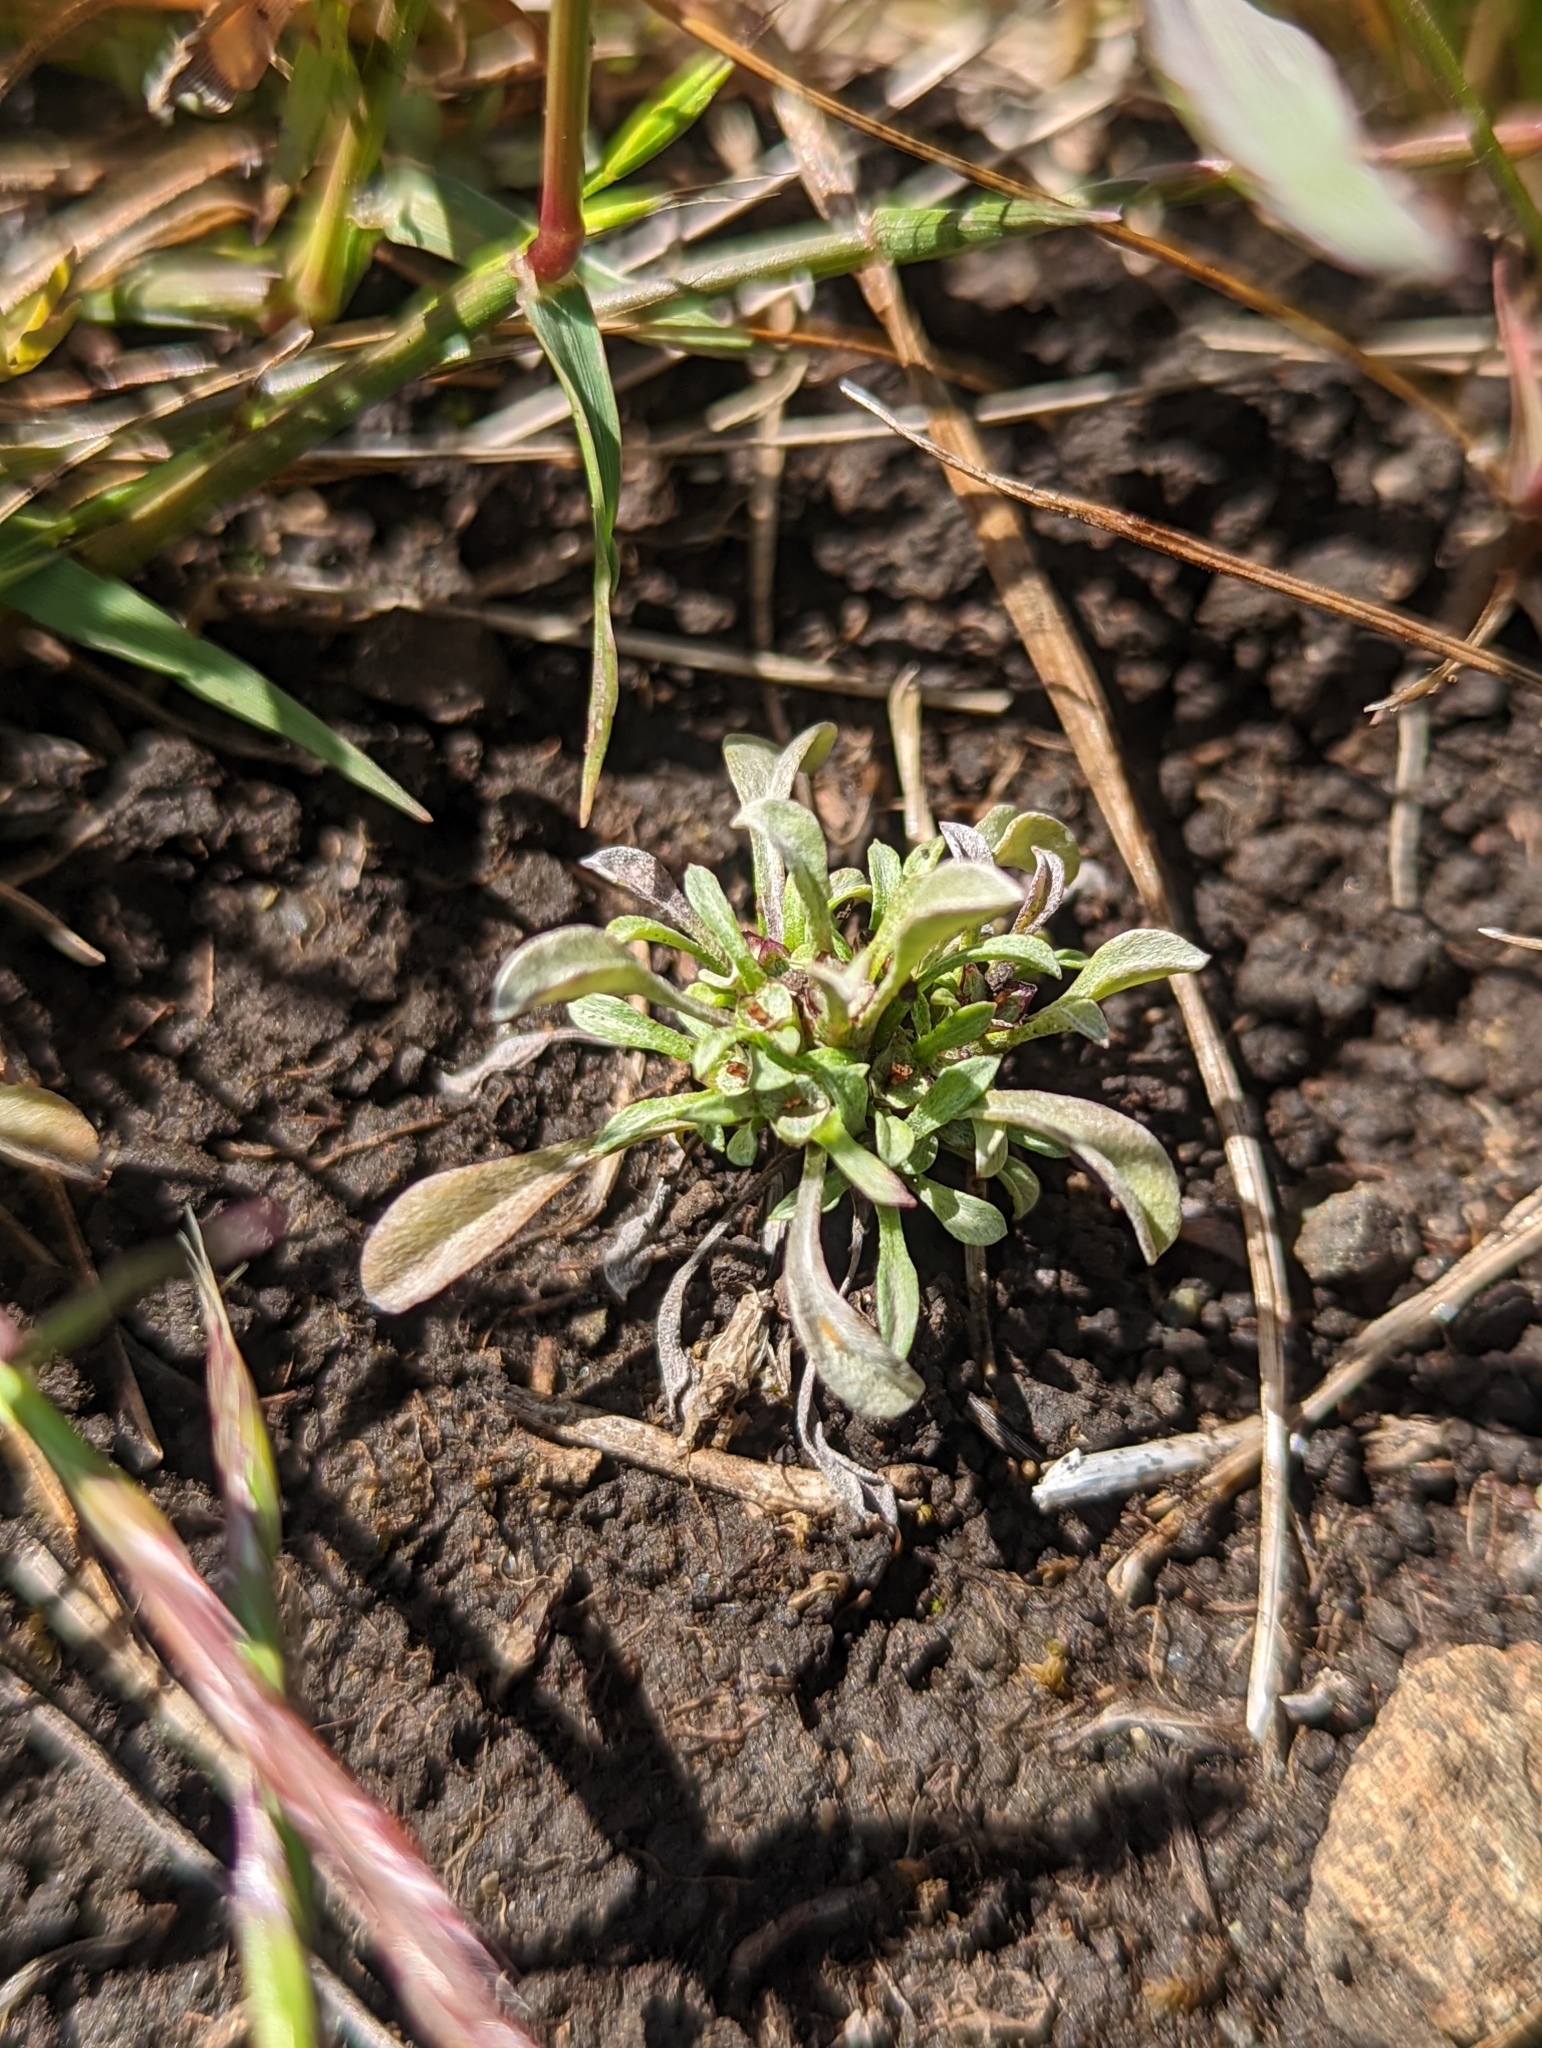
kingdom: Plantae
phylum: Tracheophyta
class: Magnoliopsida
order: Asterales
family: Asteraceae
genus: Hesperevax
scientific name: Hesperevax sparsiflora
